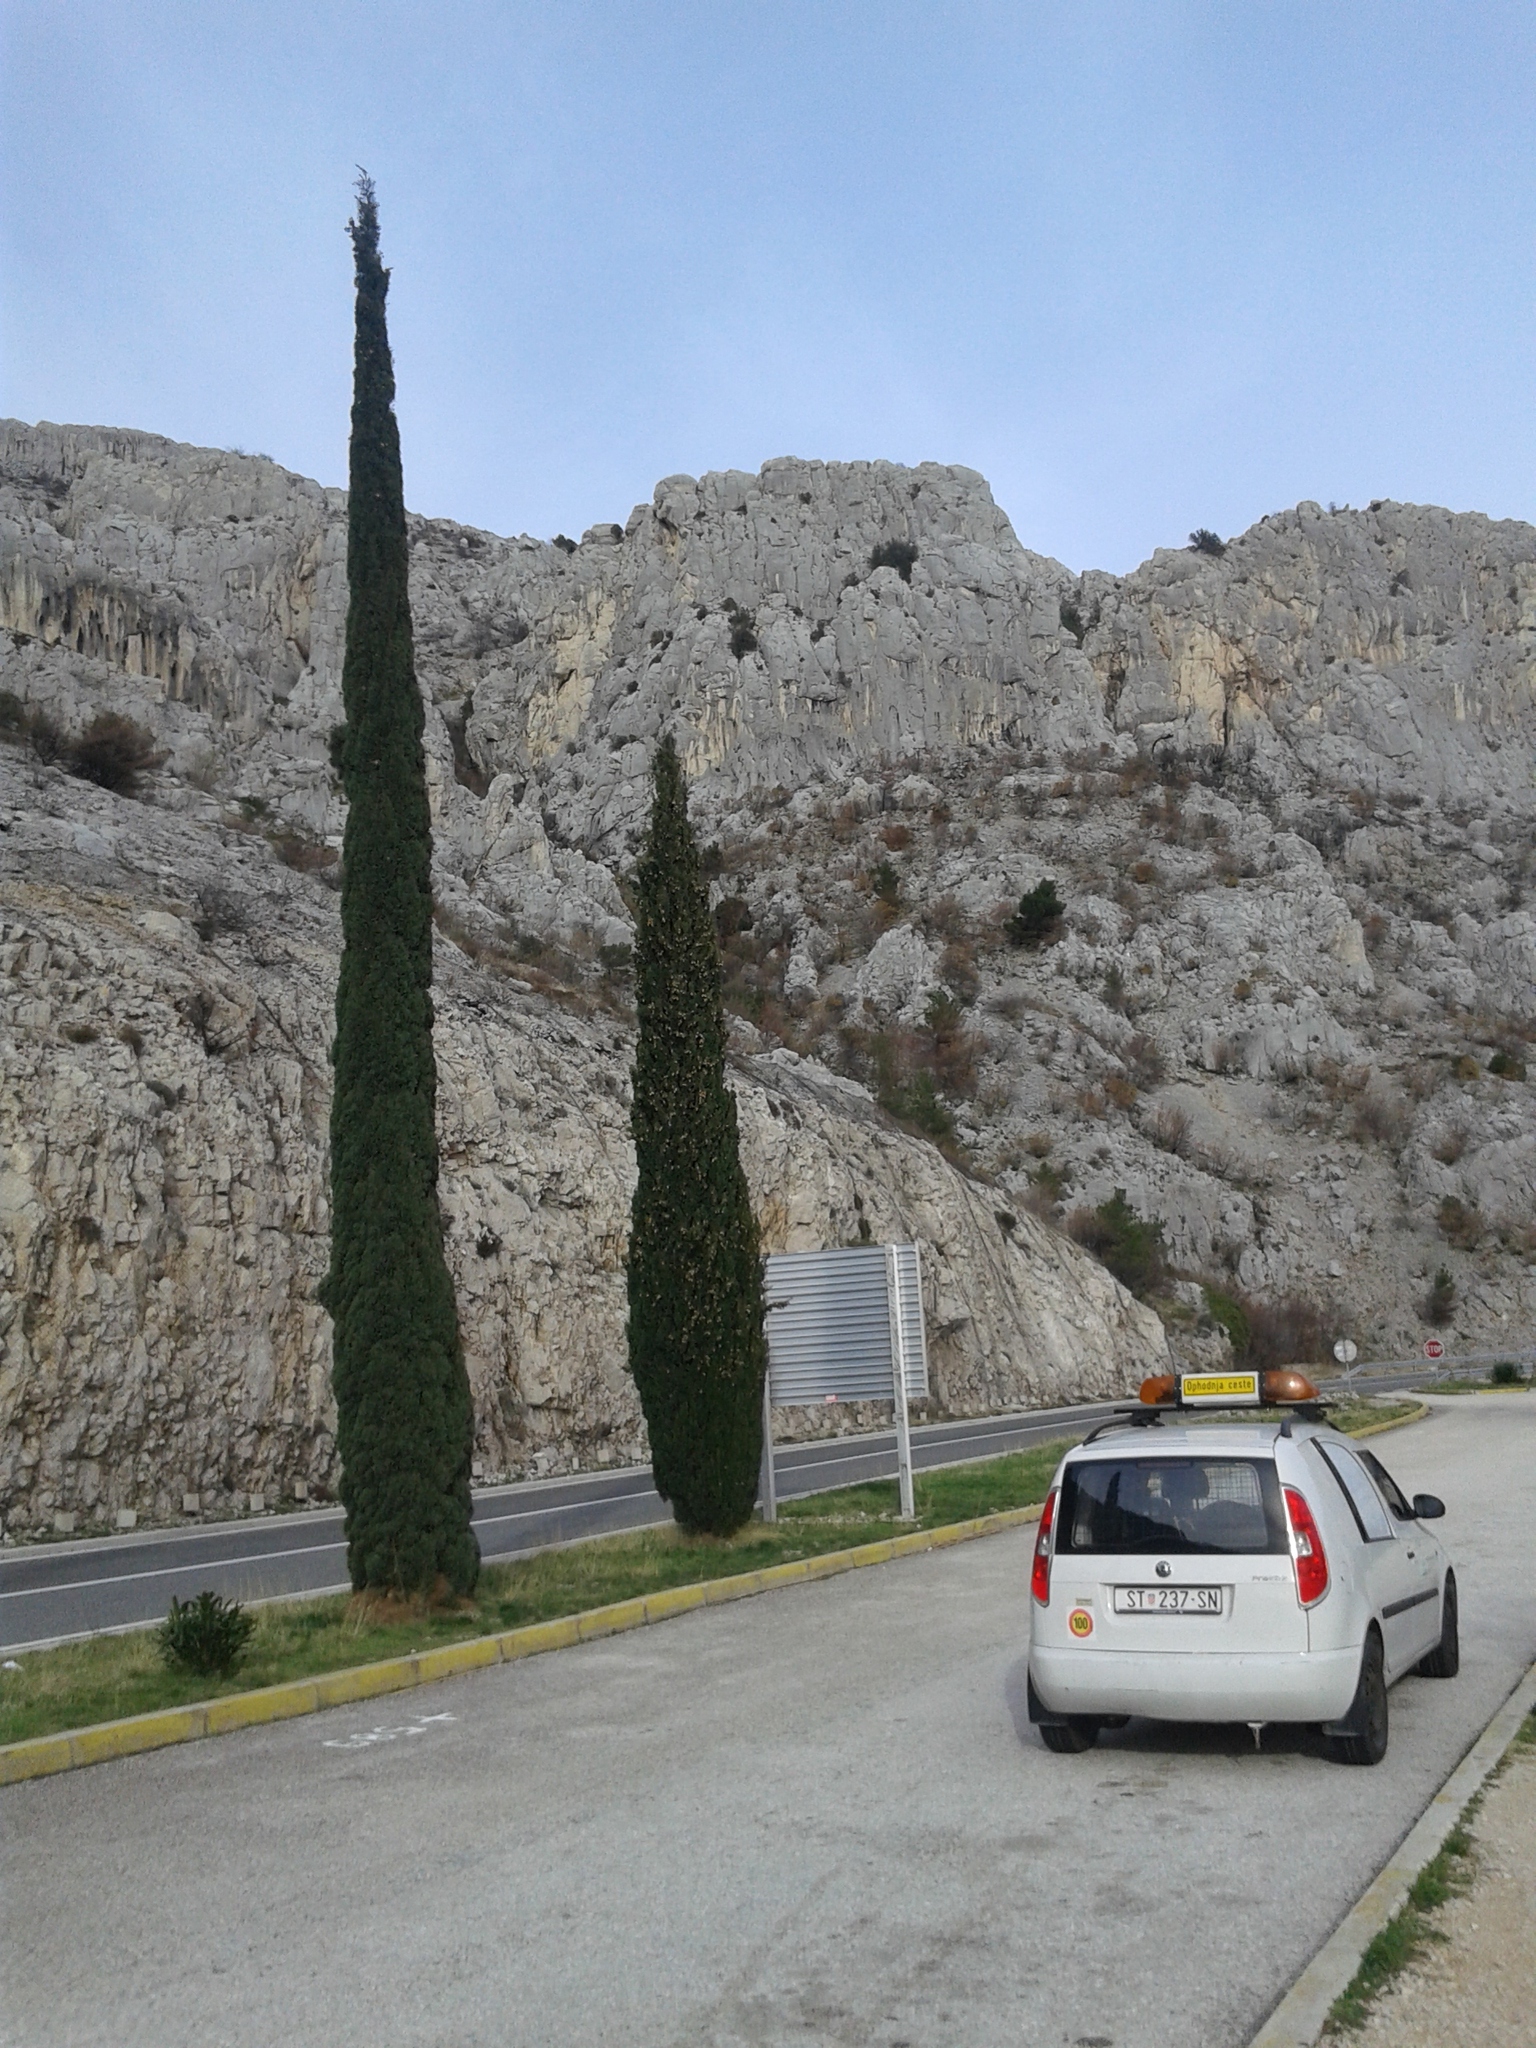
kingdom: Plantae
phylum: Tracheophyta
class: Pinopsida
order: Pinales
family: Cupressaceae
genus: Cupressus
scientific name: Cupressus sempervirens
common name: Italian cypress
